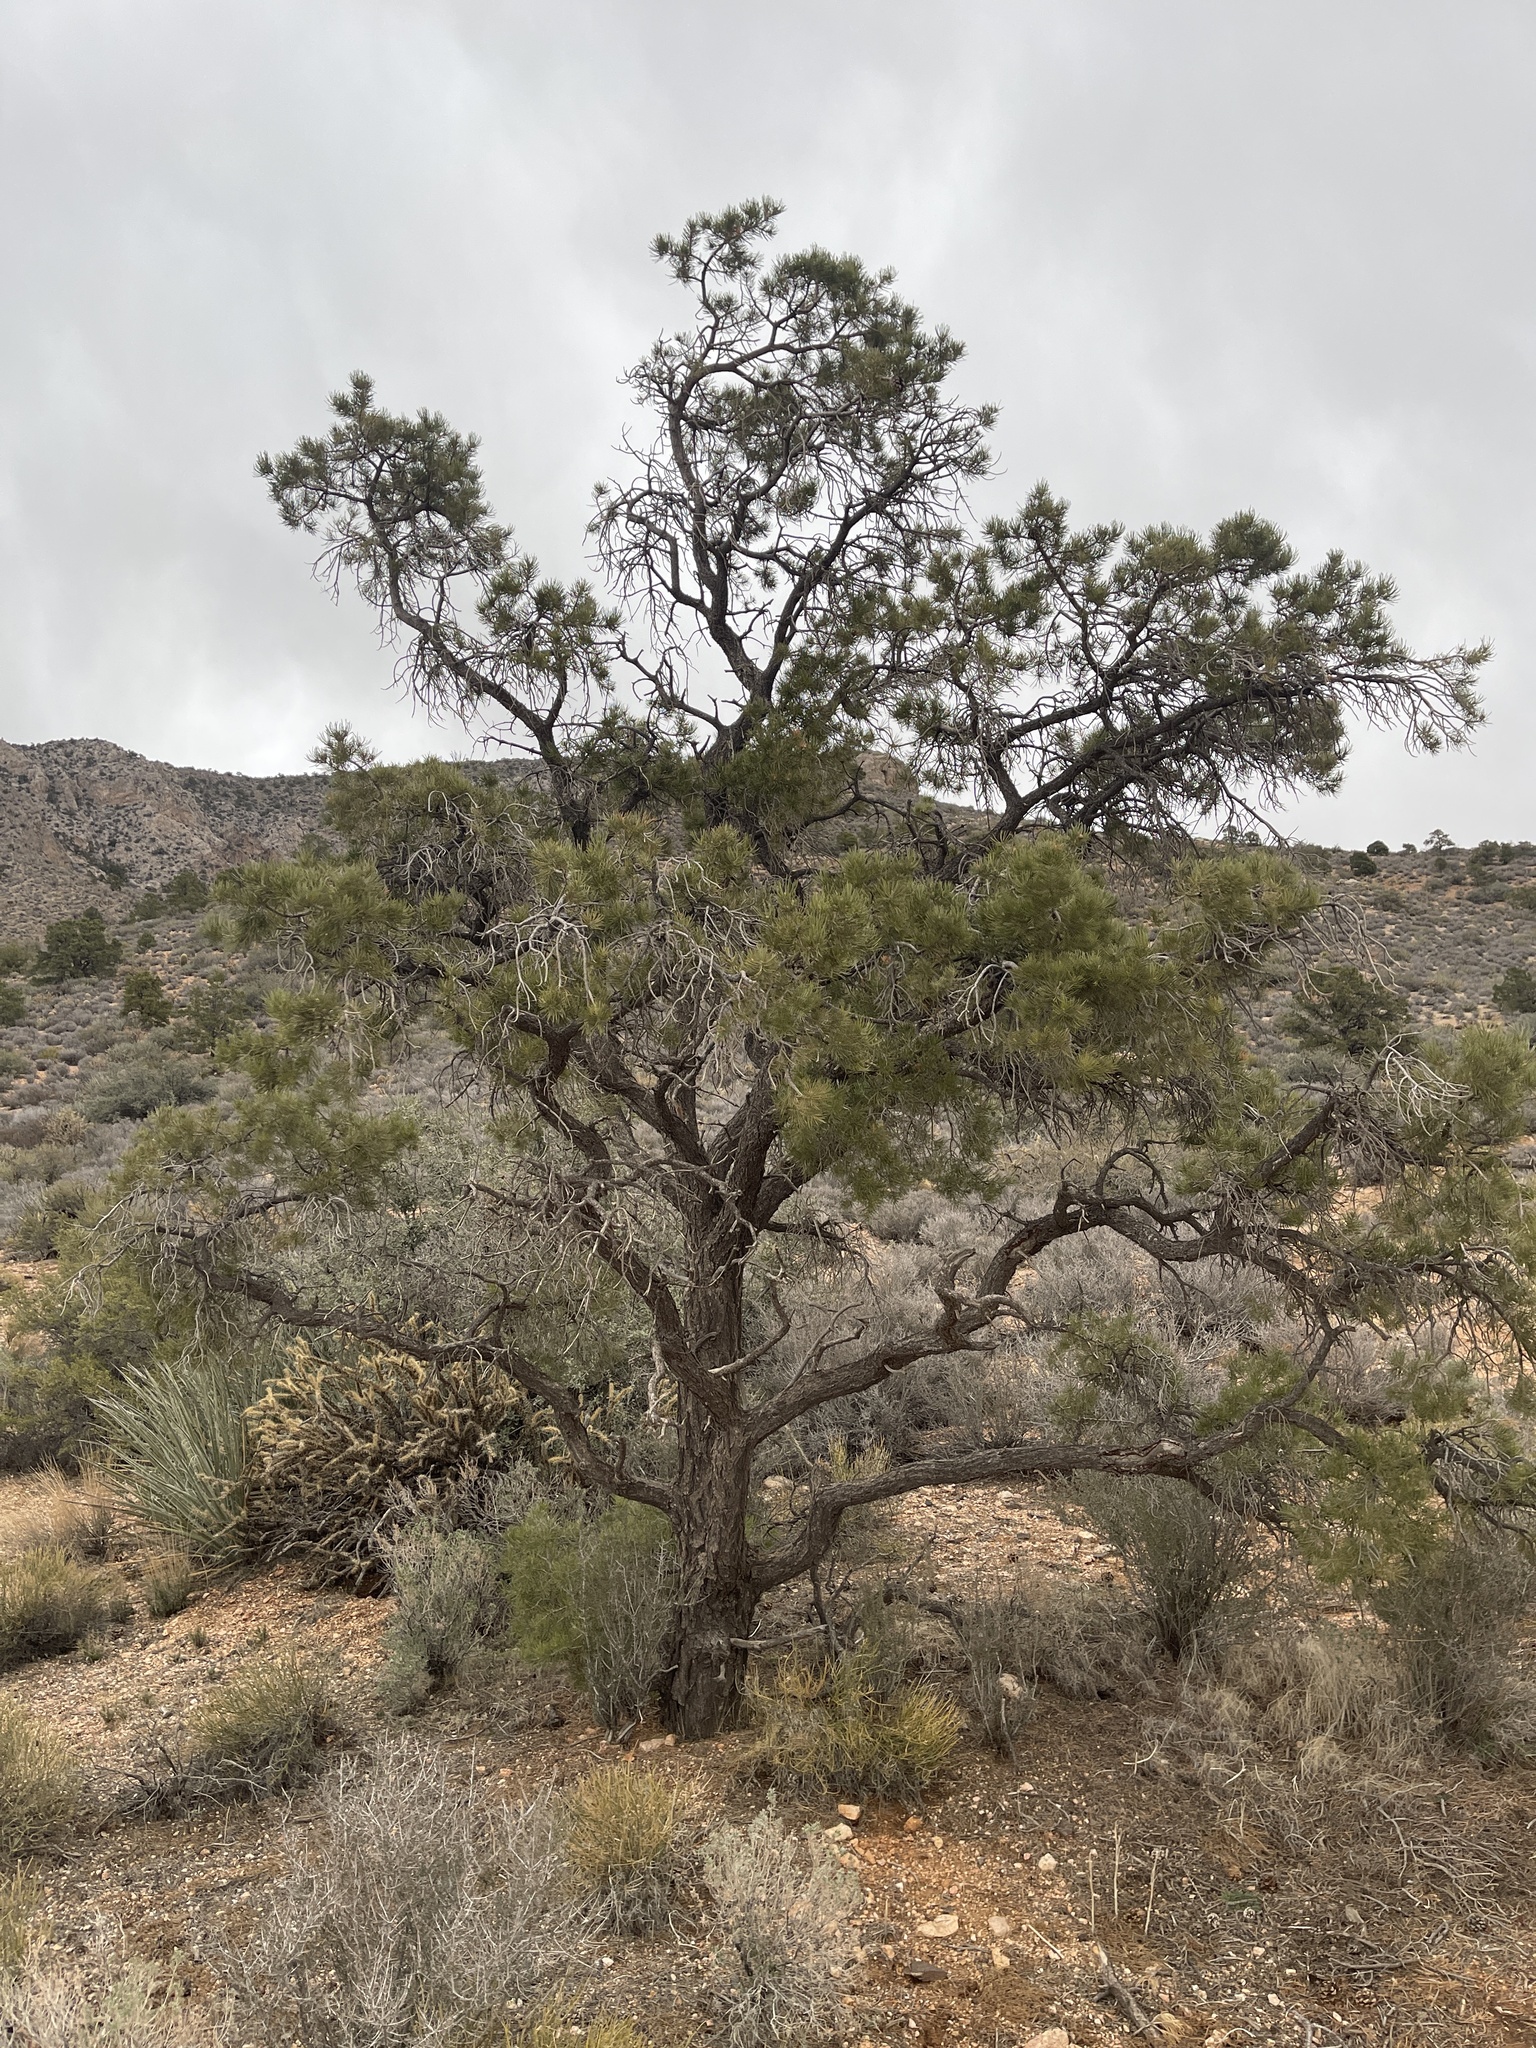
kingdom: Plantae
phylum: Tracheophyta
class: Pinopsida
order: Pinales
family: Pinaceae
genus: Pinus
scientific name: Pinus monophylla
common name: One-leaved nut pine
